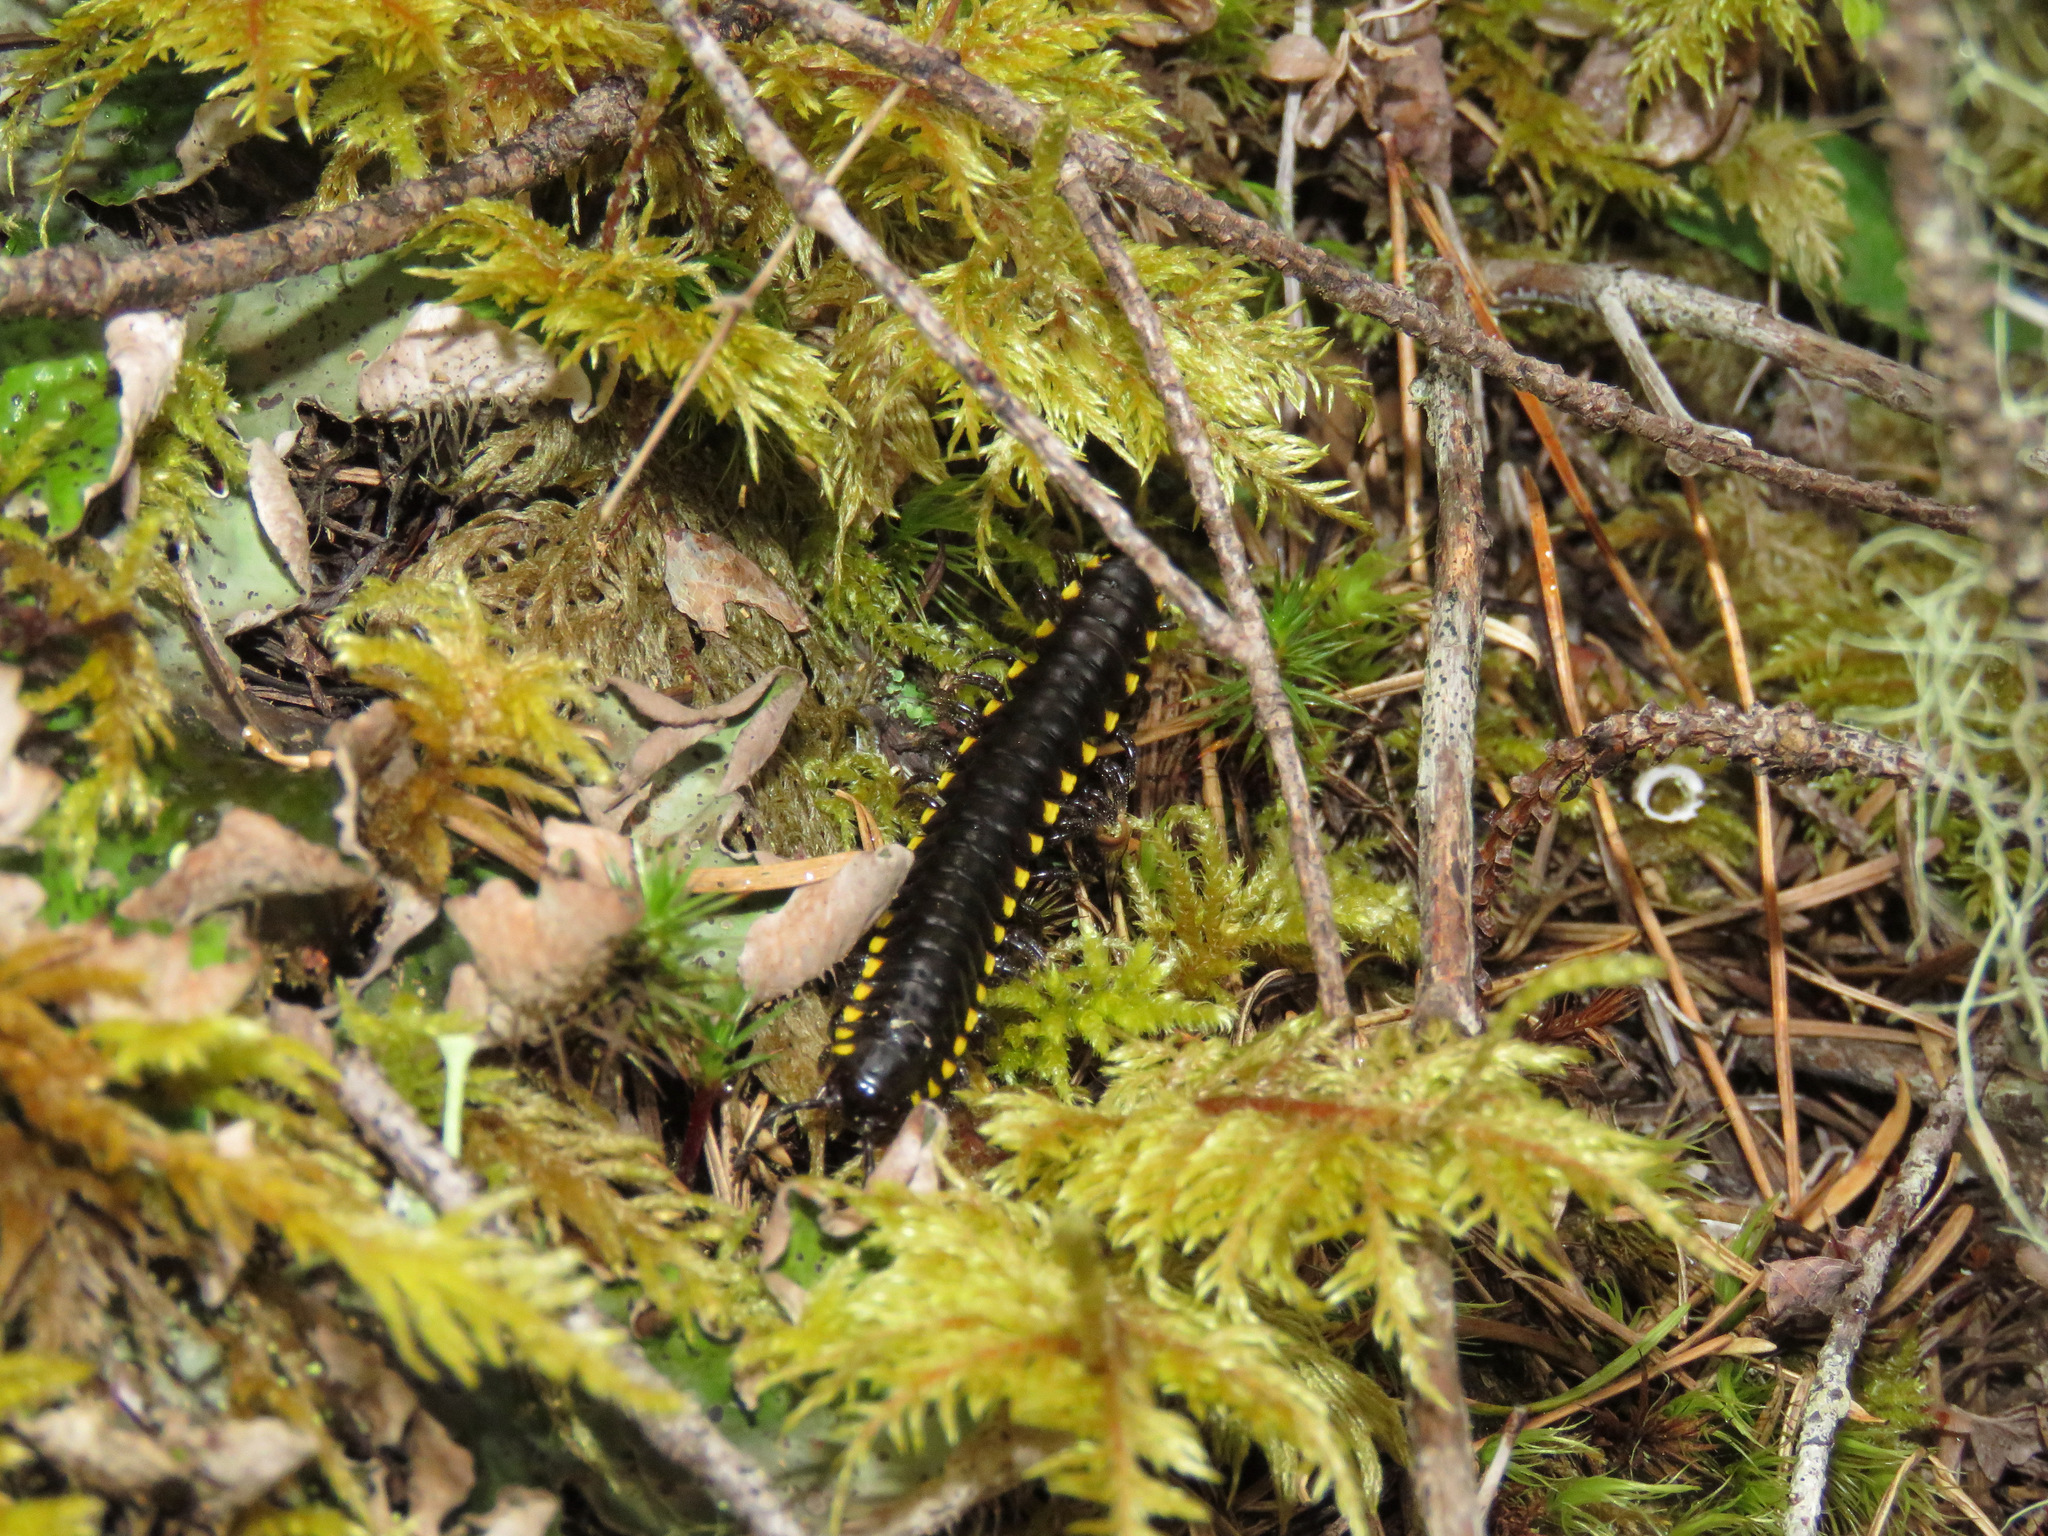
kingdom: Animalia
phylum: Arthropoda
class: Diplopoda
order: Polydesmida
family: Xystodesmidae
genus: Harpaphe
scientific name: Harpaphe haydeniana
